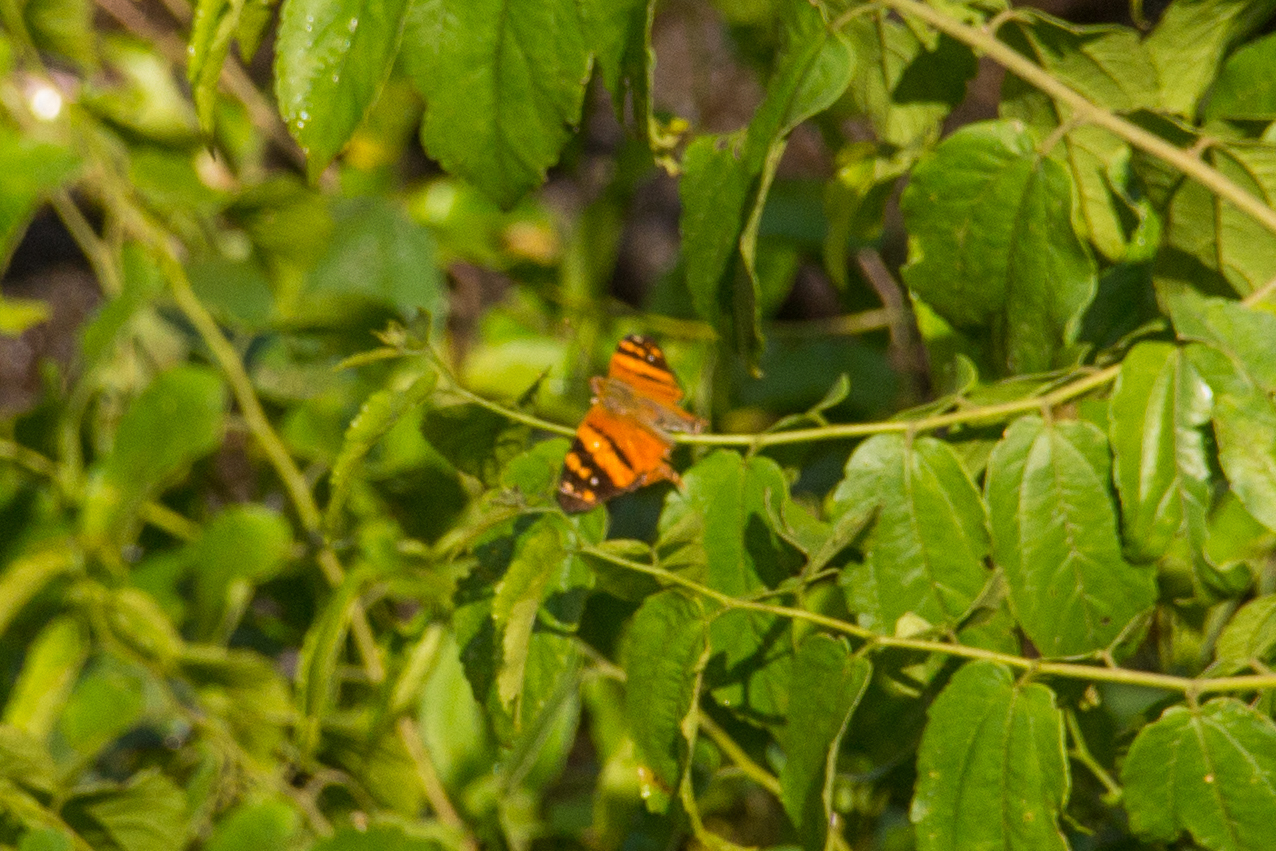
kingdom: Animalia
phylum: Arthropoda
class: Insecta
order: Lepidoptera
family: Nymphalidae
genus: Hypanartia
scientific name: Hypanartia lethe
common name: Orange mapwing
